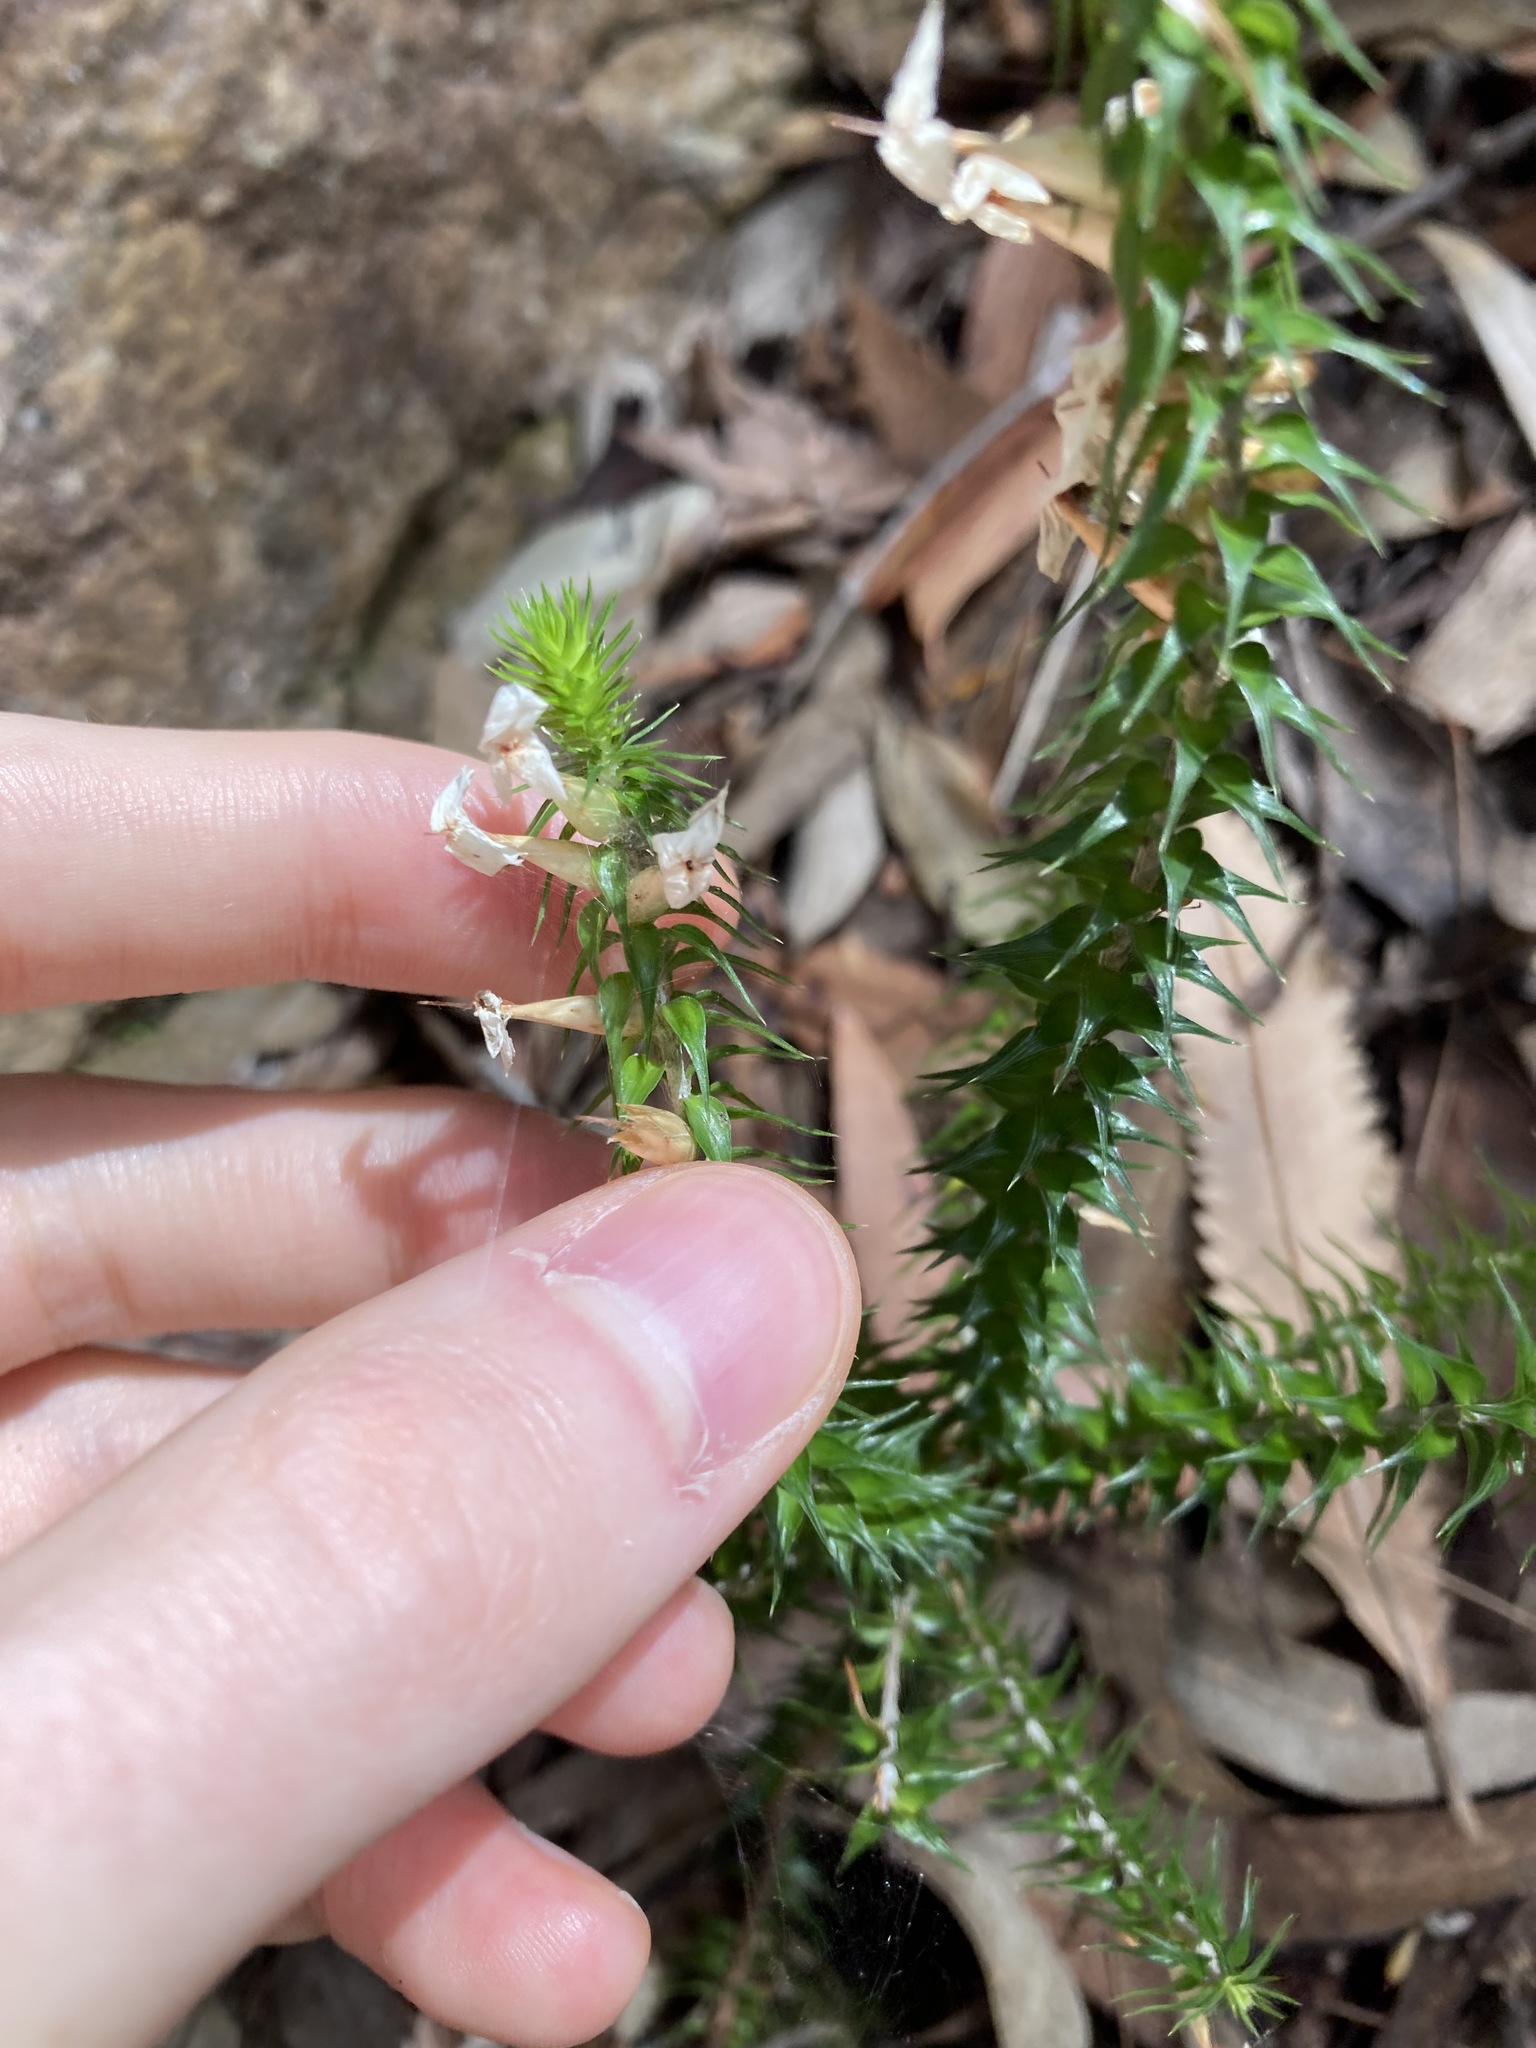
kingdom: Plantae
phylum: Tracheophyta
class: Magnoliopsida
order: Ericales
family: Ericaceae
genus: Woollsia
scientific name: Woollsia pungens
